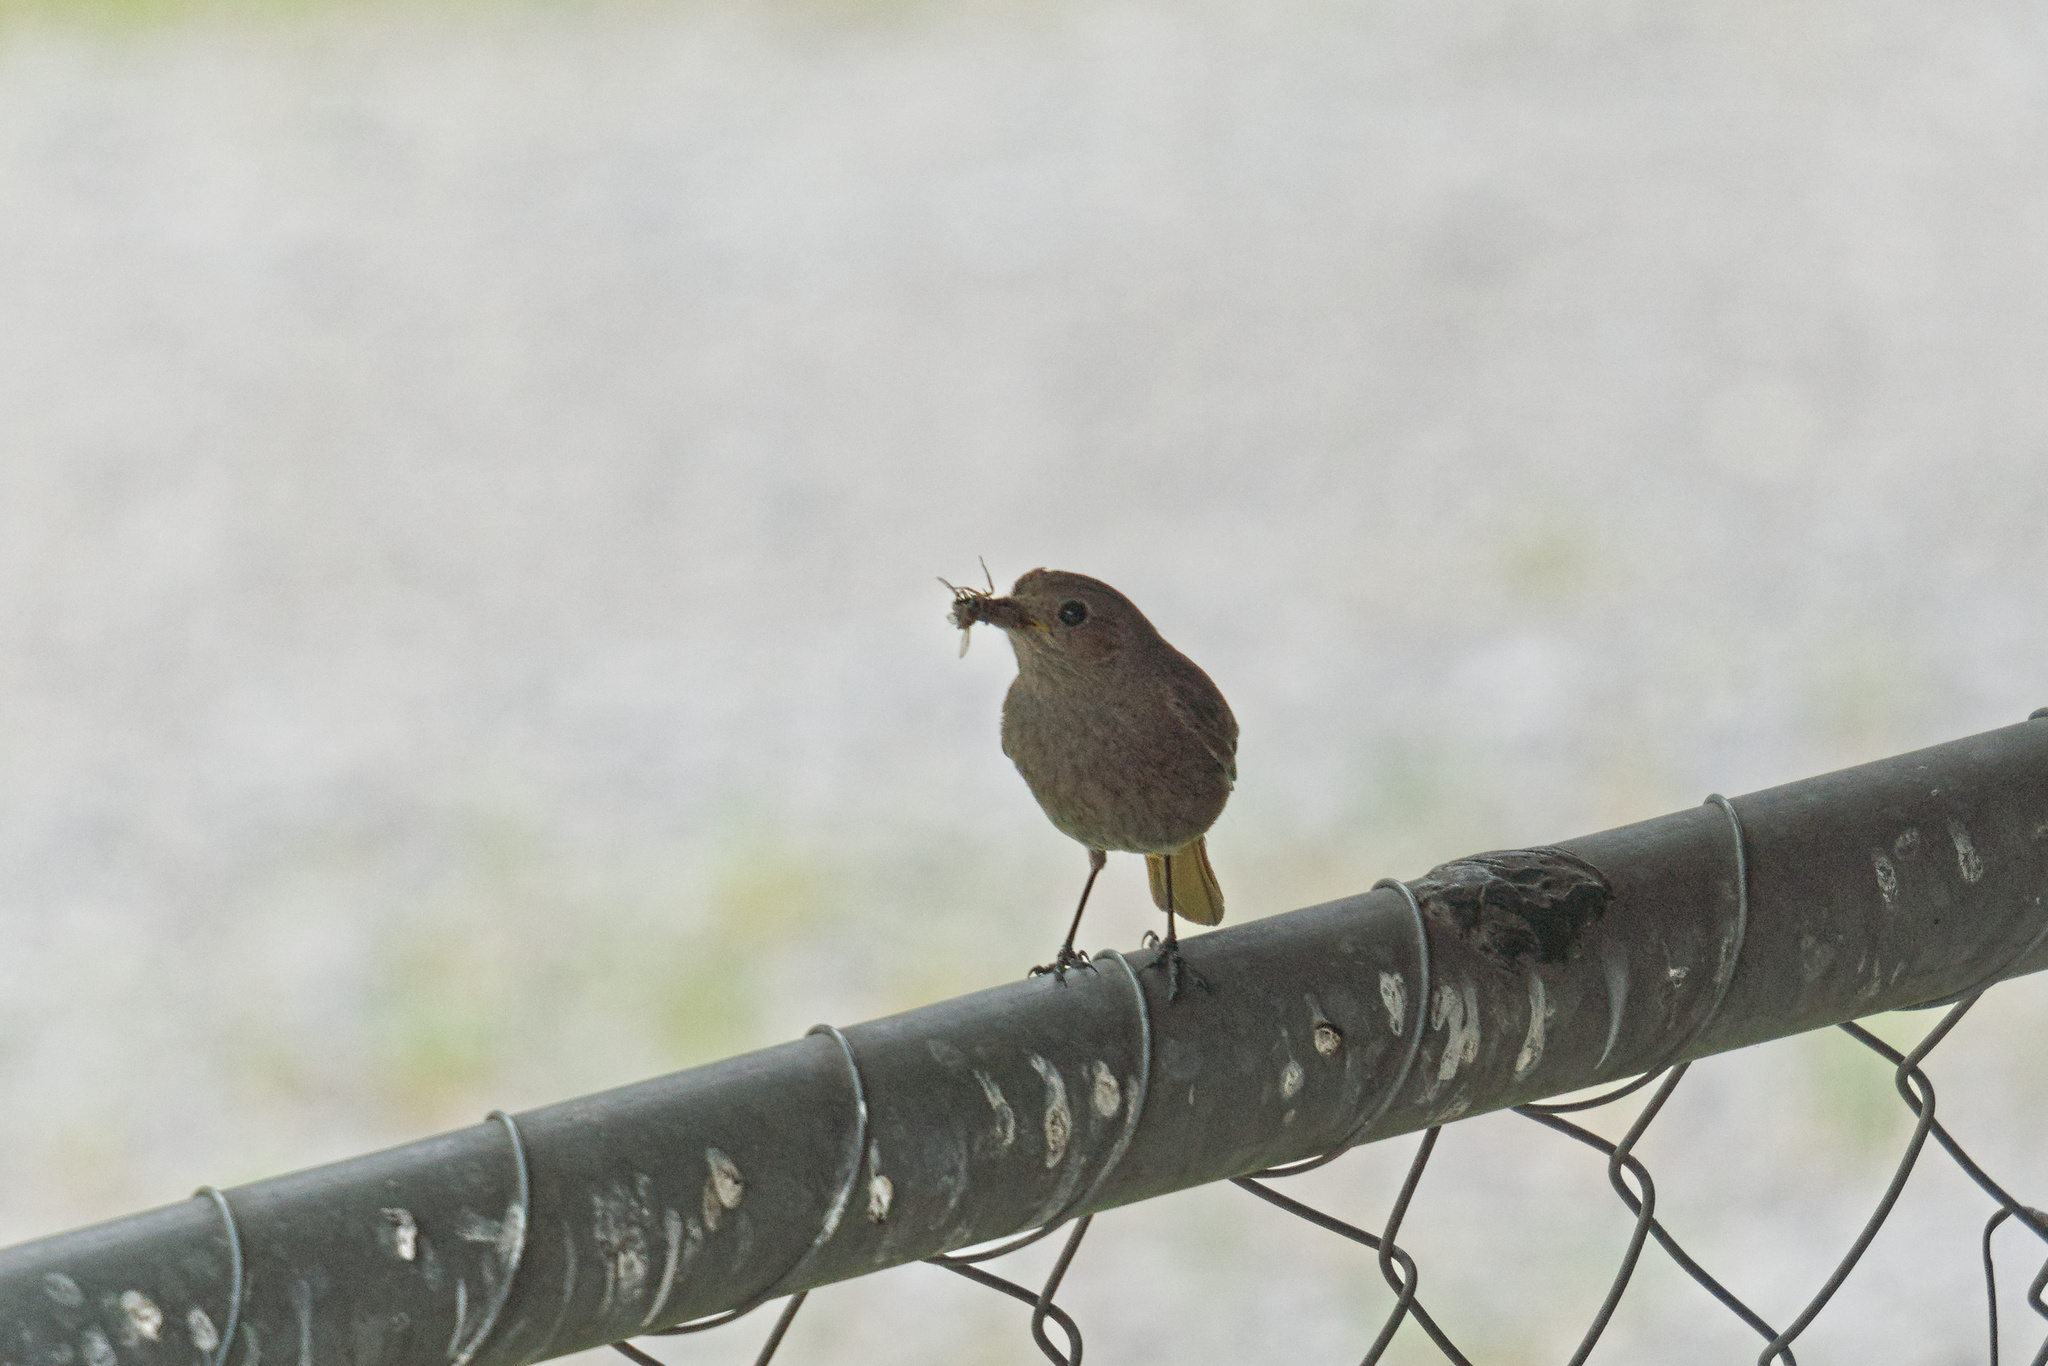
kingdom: Animalia
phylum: Chordata
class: Aves
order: Passeriformes
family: Muscicapidae
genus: Phoenicurus
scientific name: Phoenicurus ochruros
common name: Black redstart
